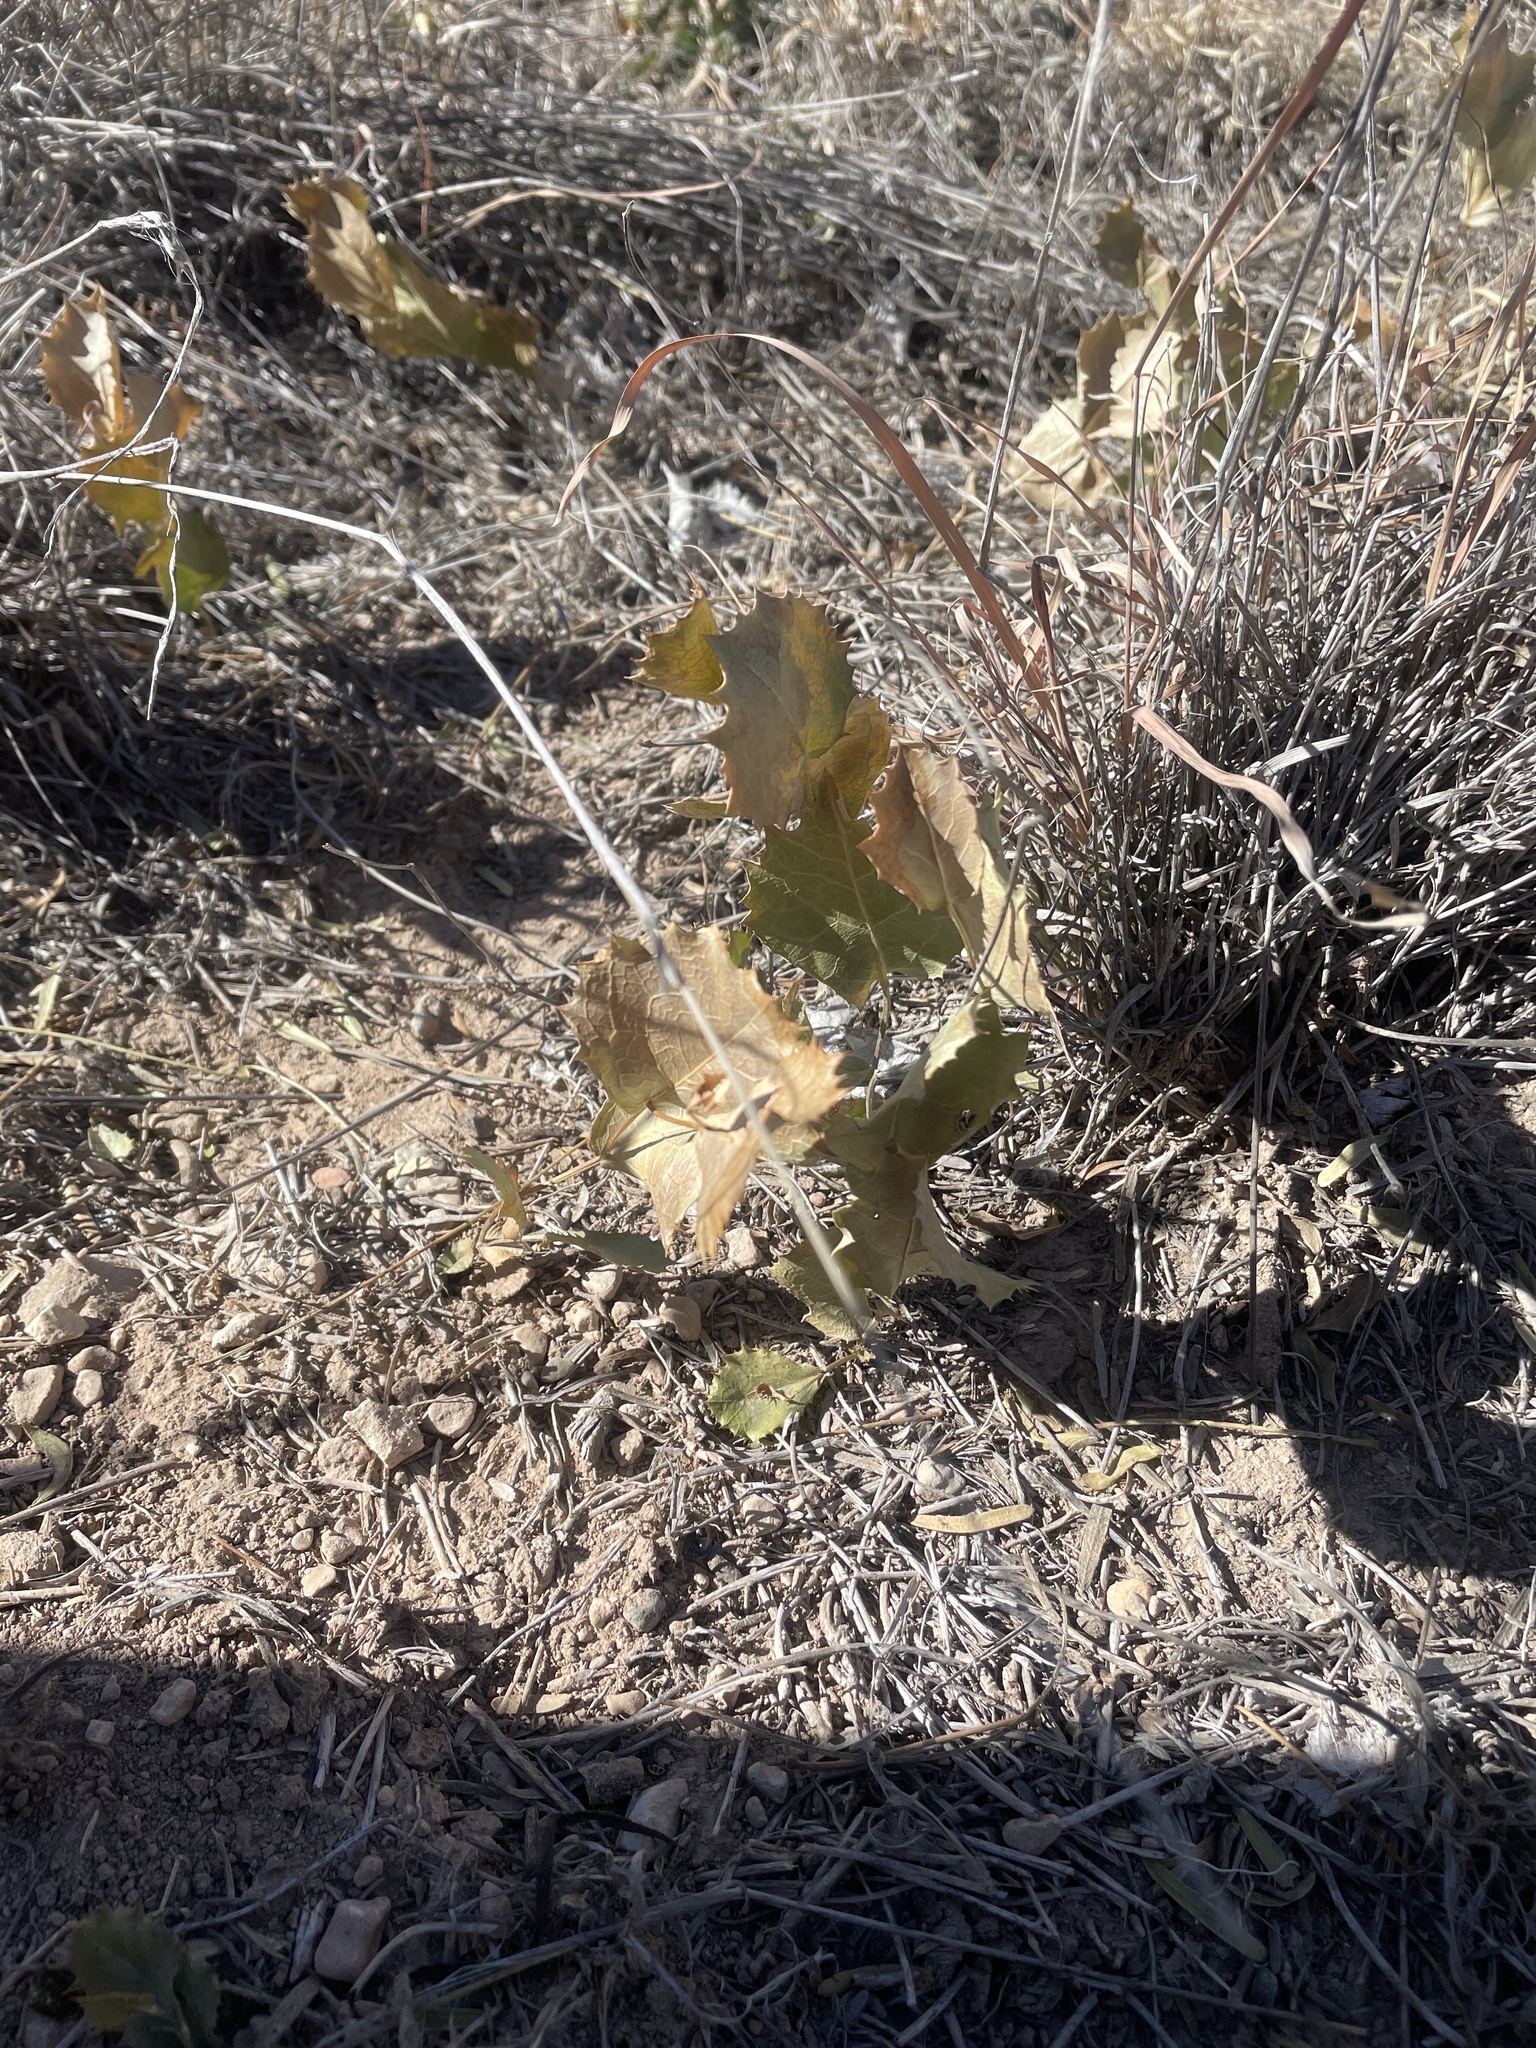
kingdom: Plantae
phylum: Tracheophyta
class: Magnoliopsida
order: Asterales
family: Asteraceae
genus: Acourtia
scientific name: Acourtia nana
